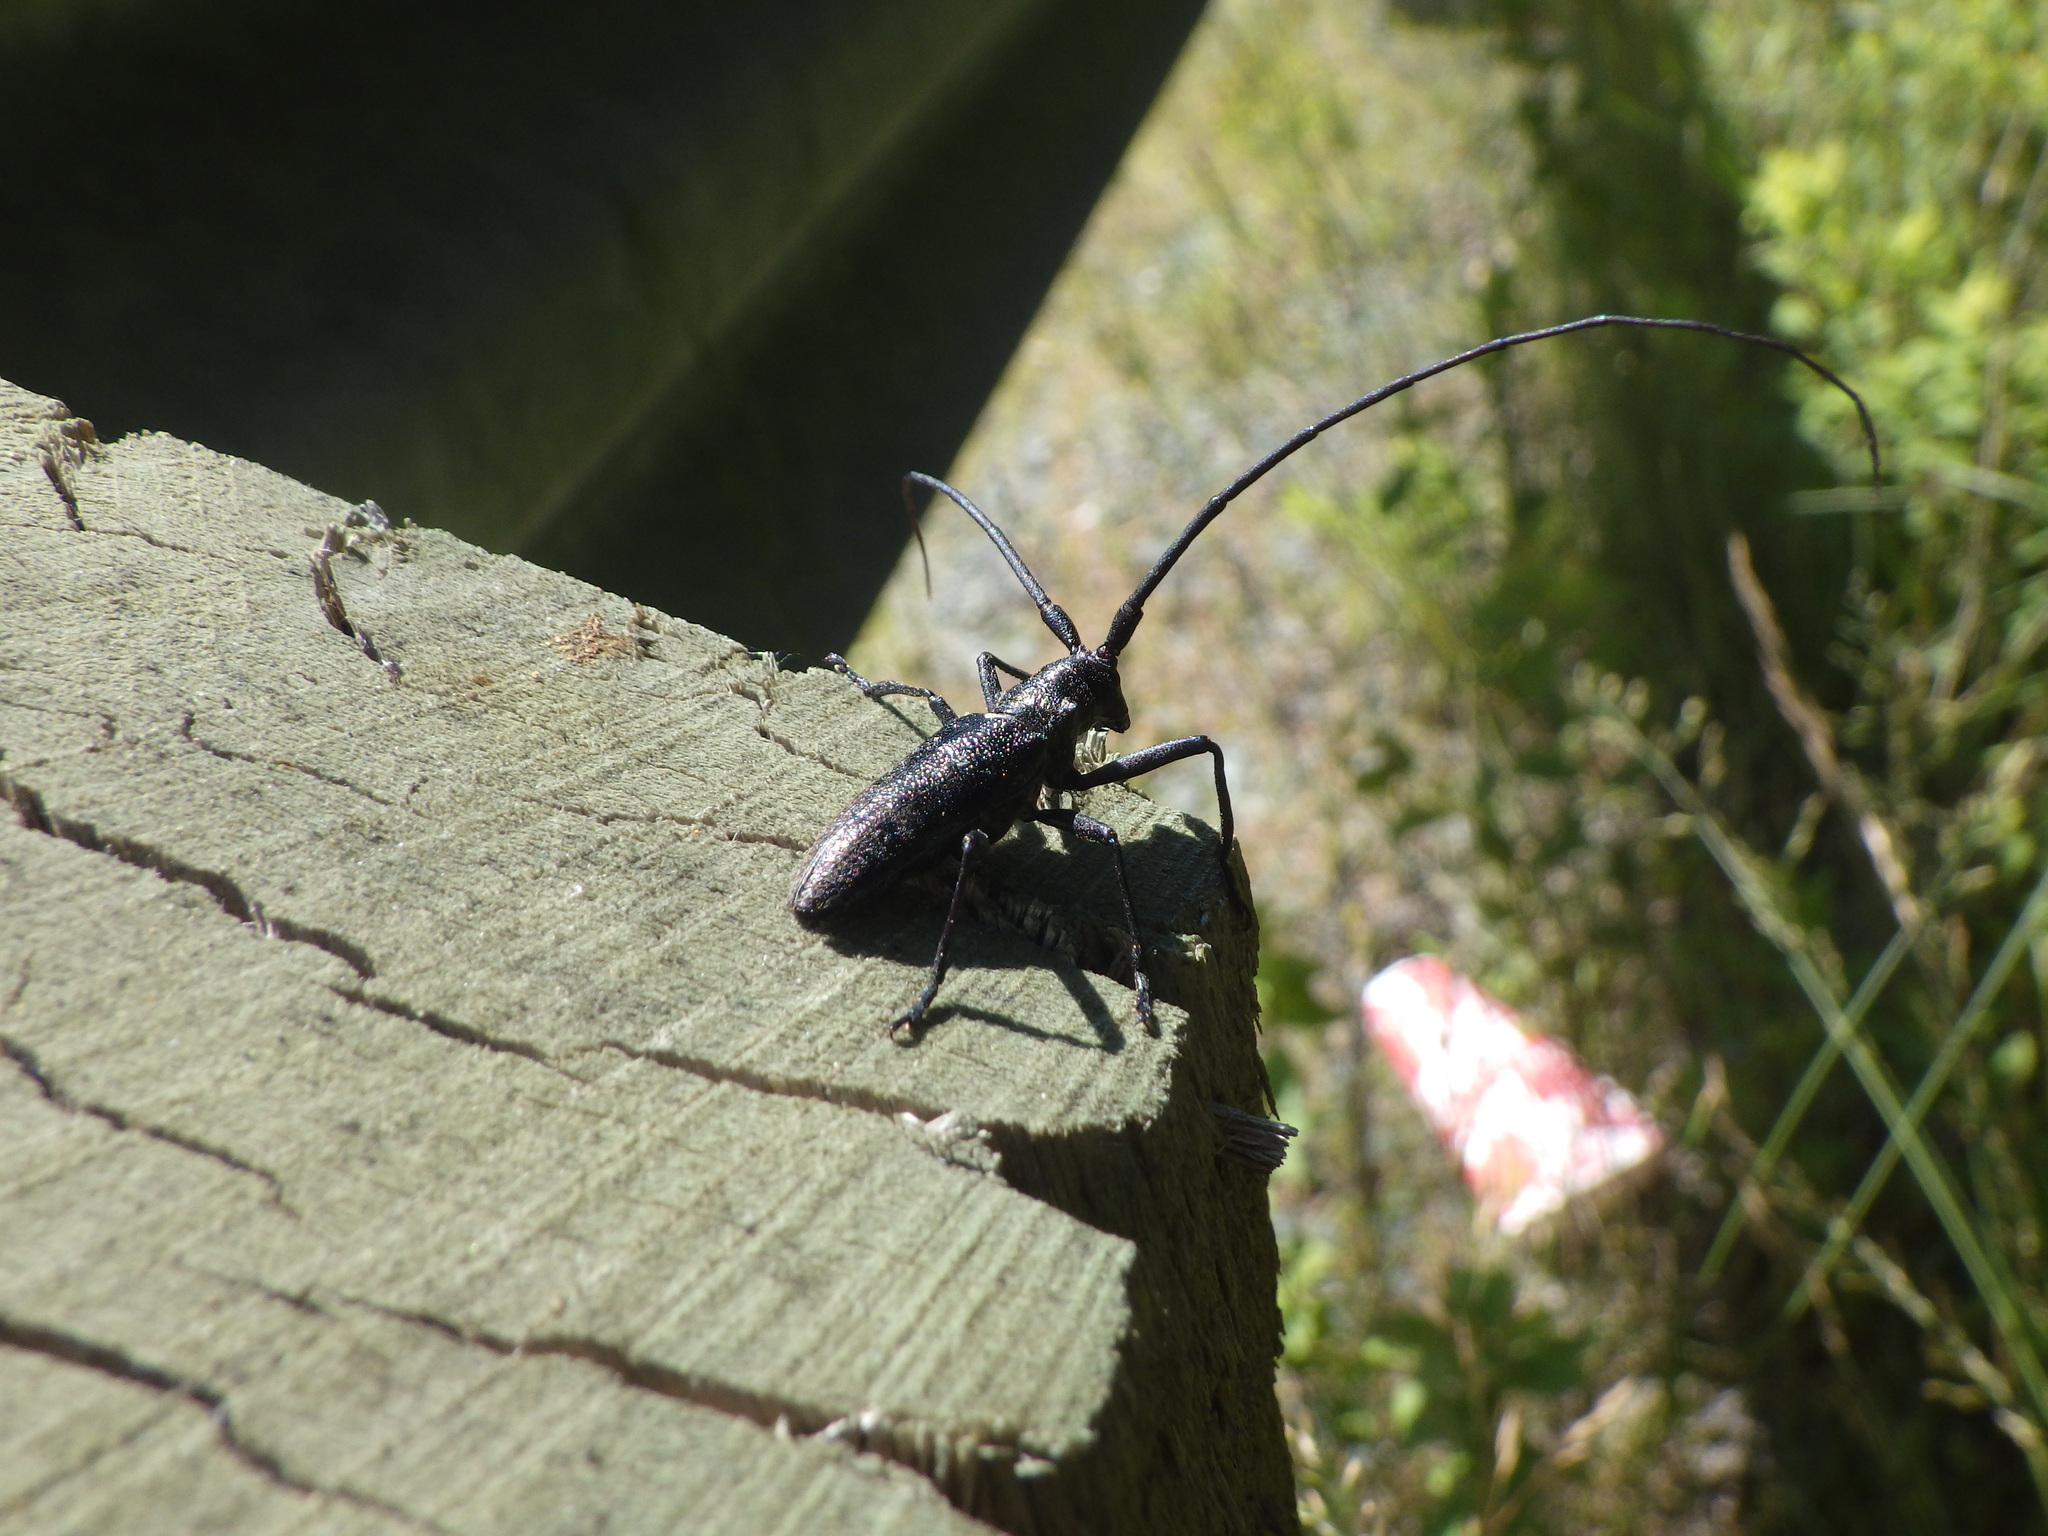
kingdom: Animalia
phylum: Arthropoda
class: Insecta
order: Coleoptera
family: Cerambycidae
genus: Monochamus
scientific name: Monochamus scutellatus
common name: White-spotted sawyer beetle
